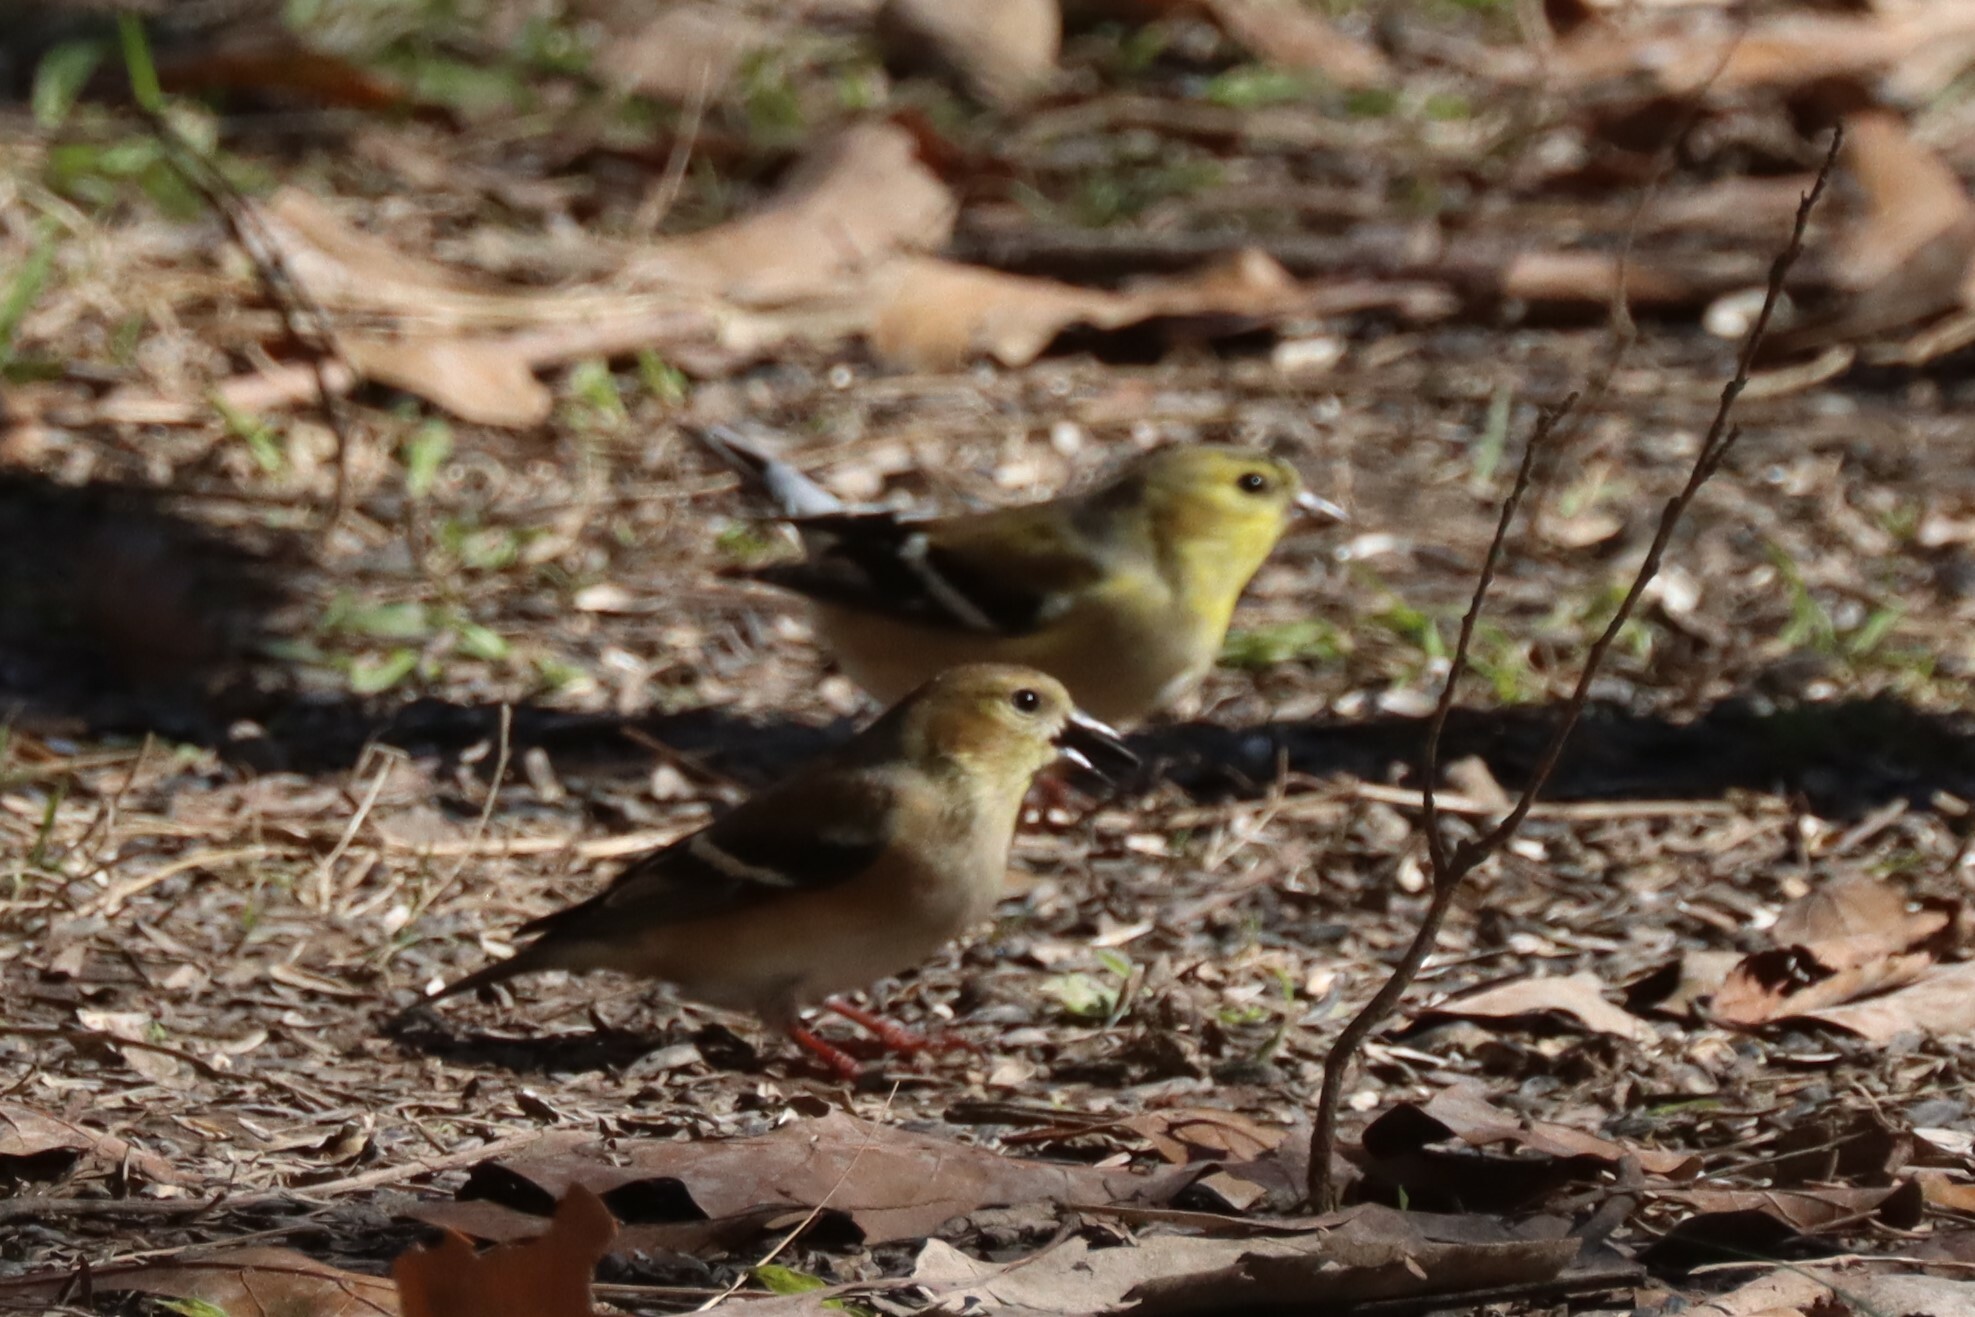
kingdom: Animalia
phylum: Chordata
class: Aves
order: Passeriformes
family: Fringillidae
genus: Spinus
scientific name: Spinus tristis
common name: American goldfinch
